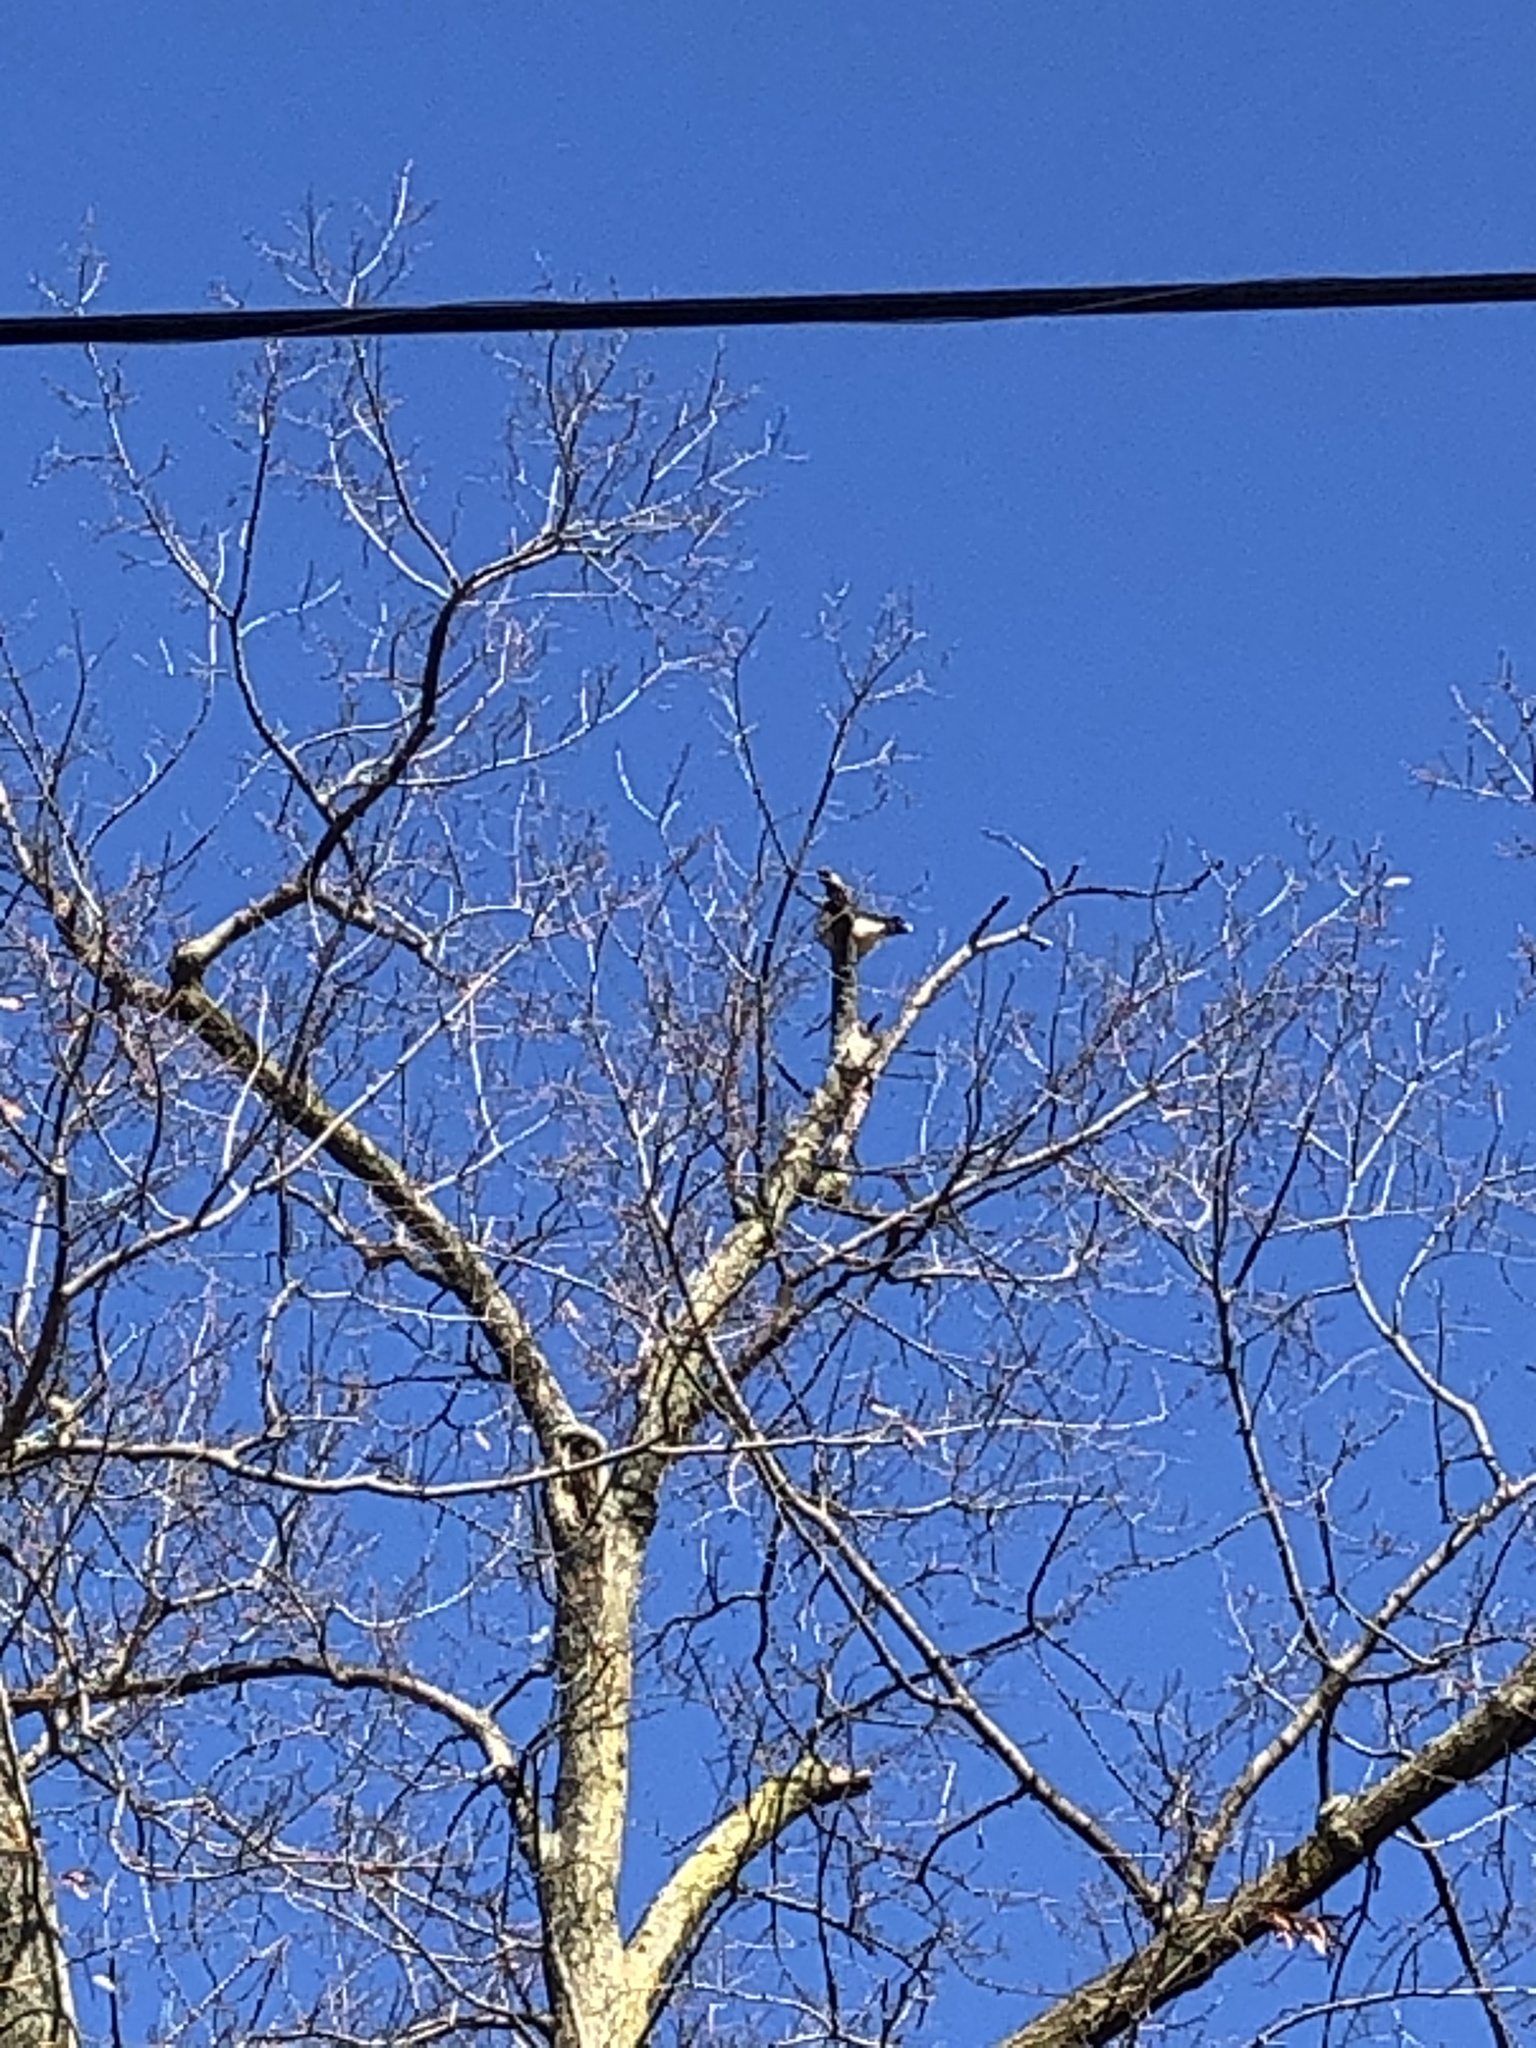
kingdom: Animalia
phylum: Chordata
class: Aves
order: Accipitriformes
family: Accipitridae
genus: Accipiter
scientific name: Accipiter cooperii
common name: Cooper's hawk
